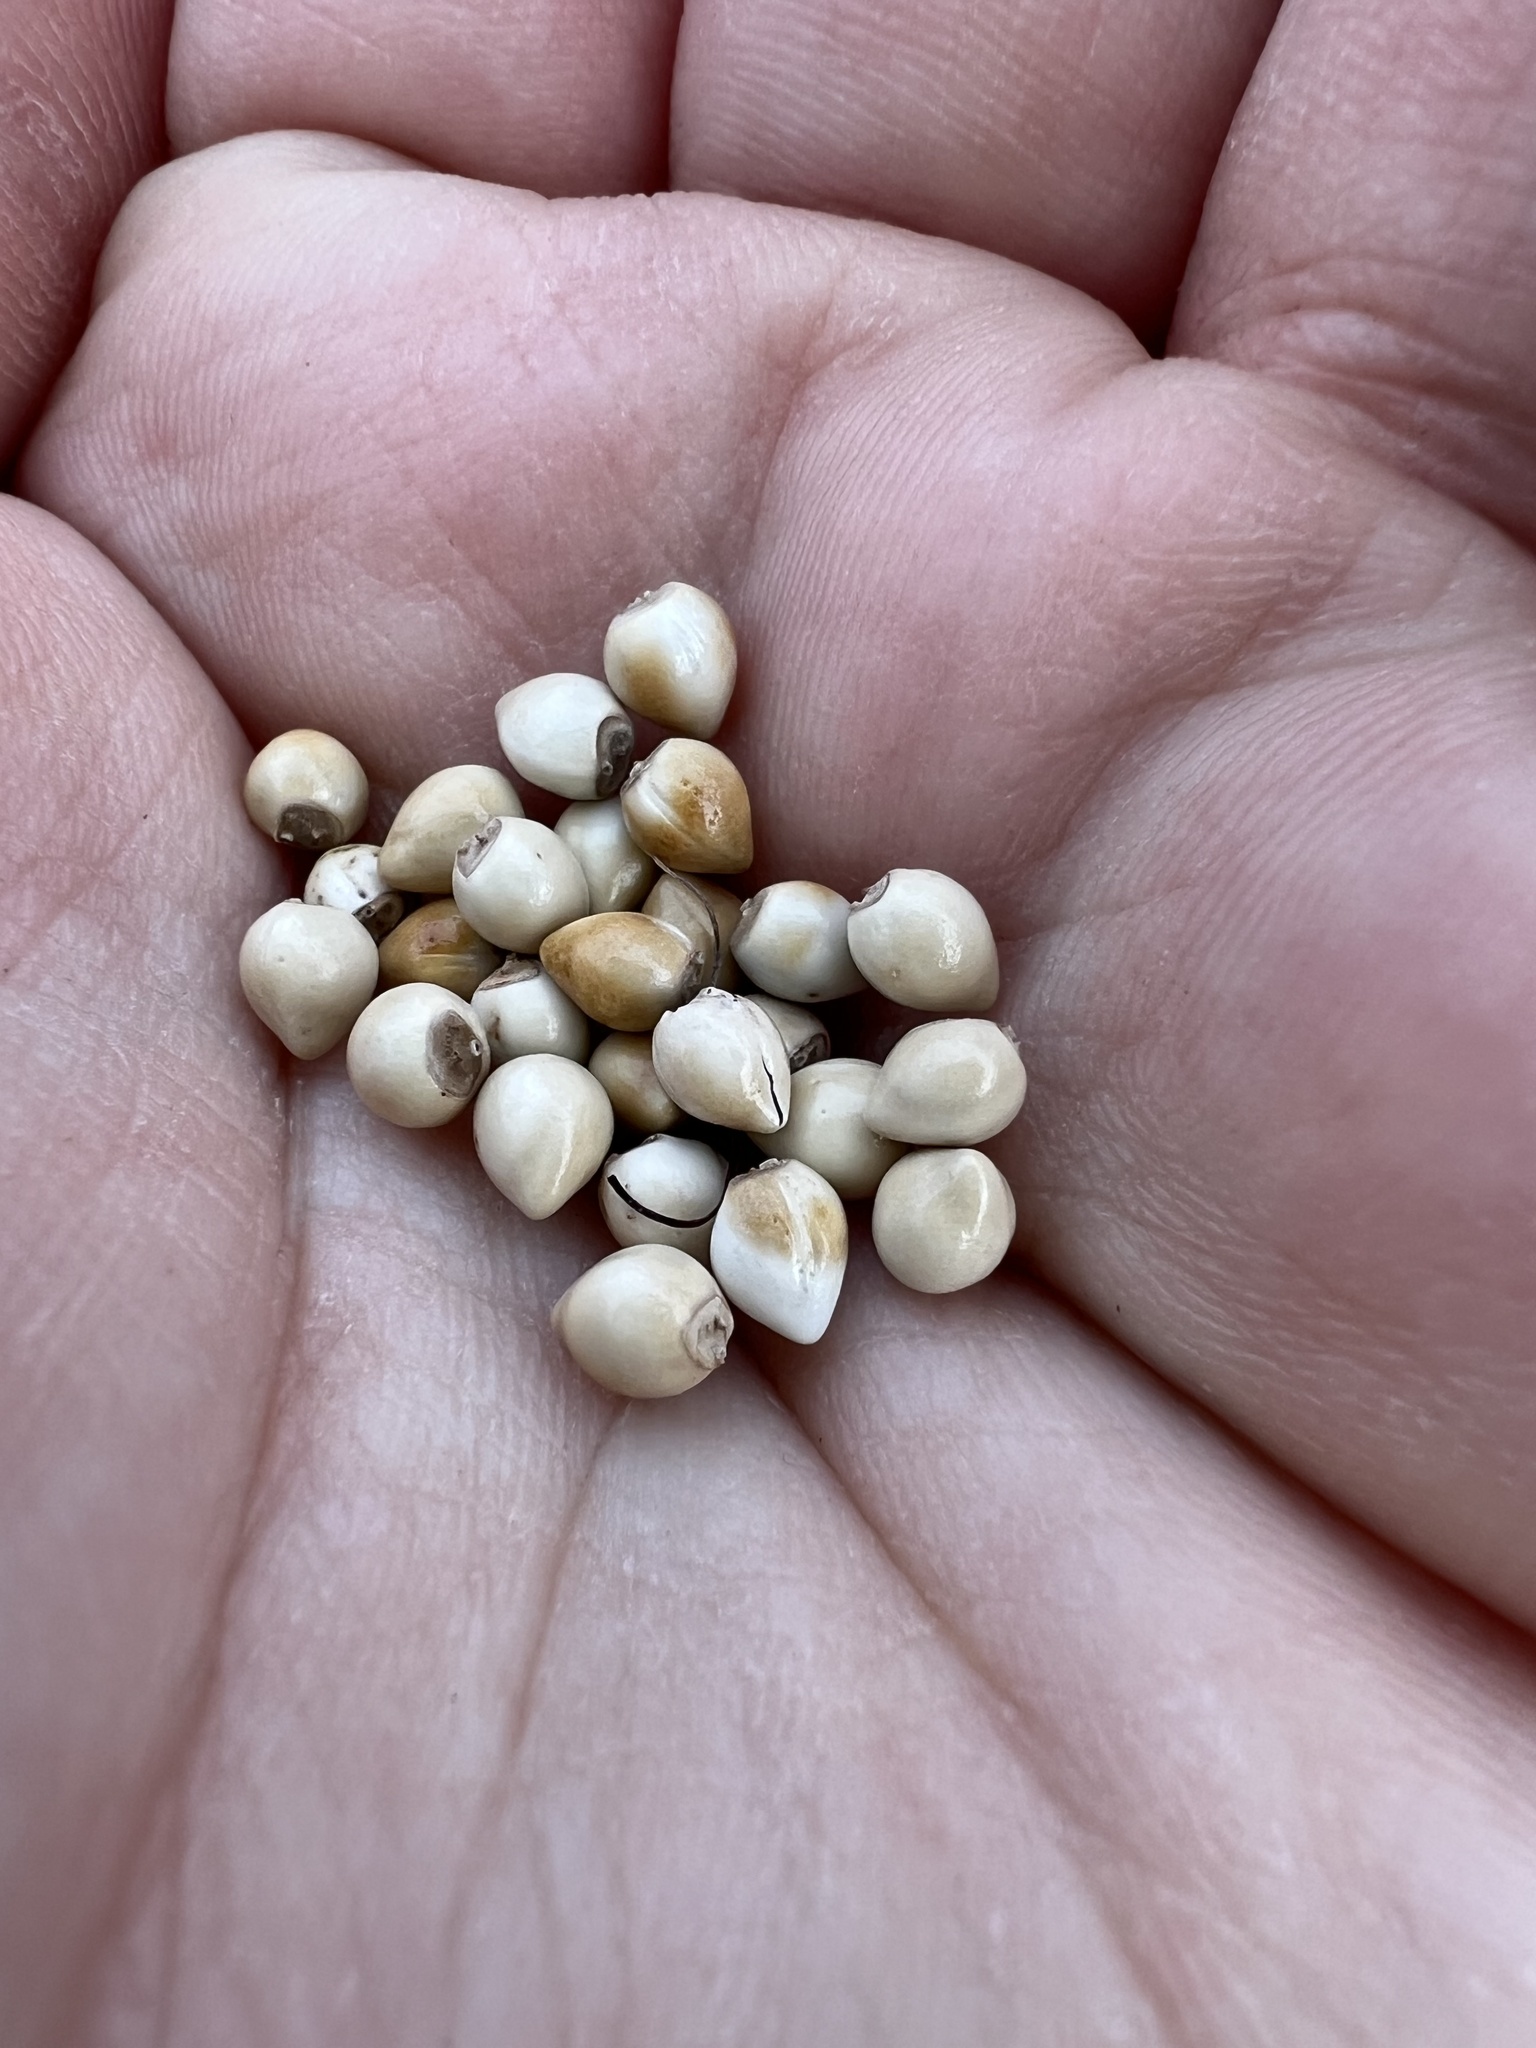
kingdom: Plantae
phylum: Tracheophyta
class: Magnoliopsida
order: Boraginales
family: Boraginaceae
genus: Lithospermum
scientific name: Lithospermum occidentale
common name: Western false gromwell
